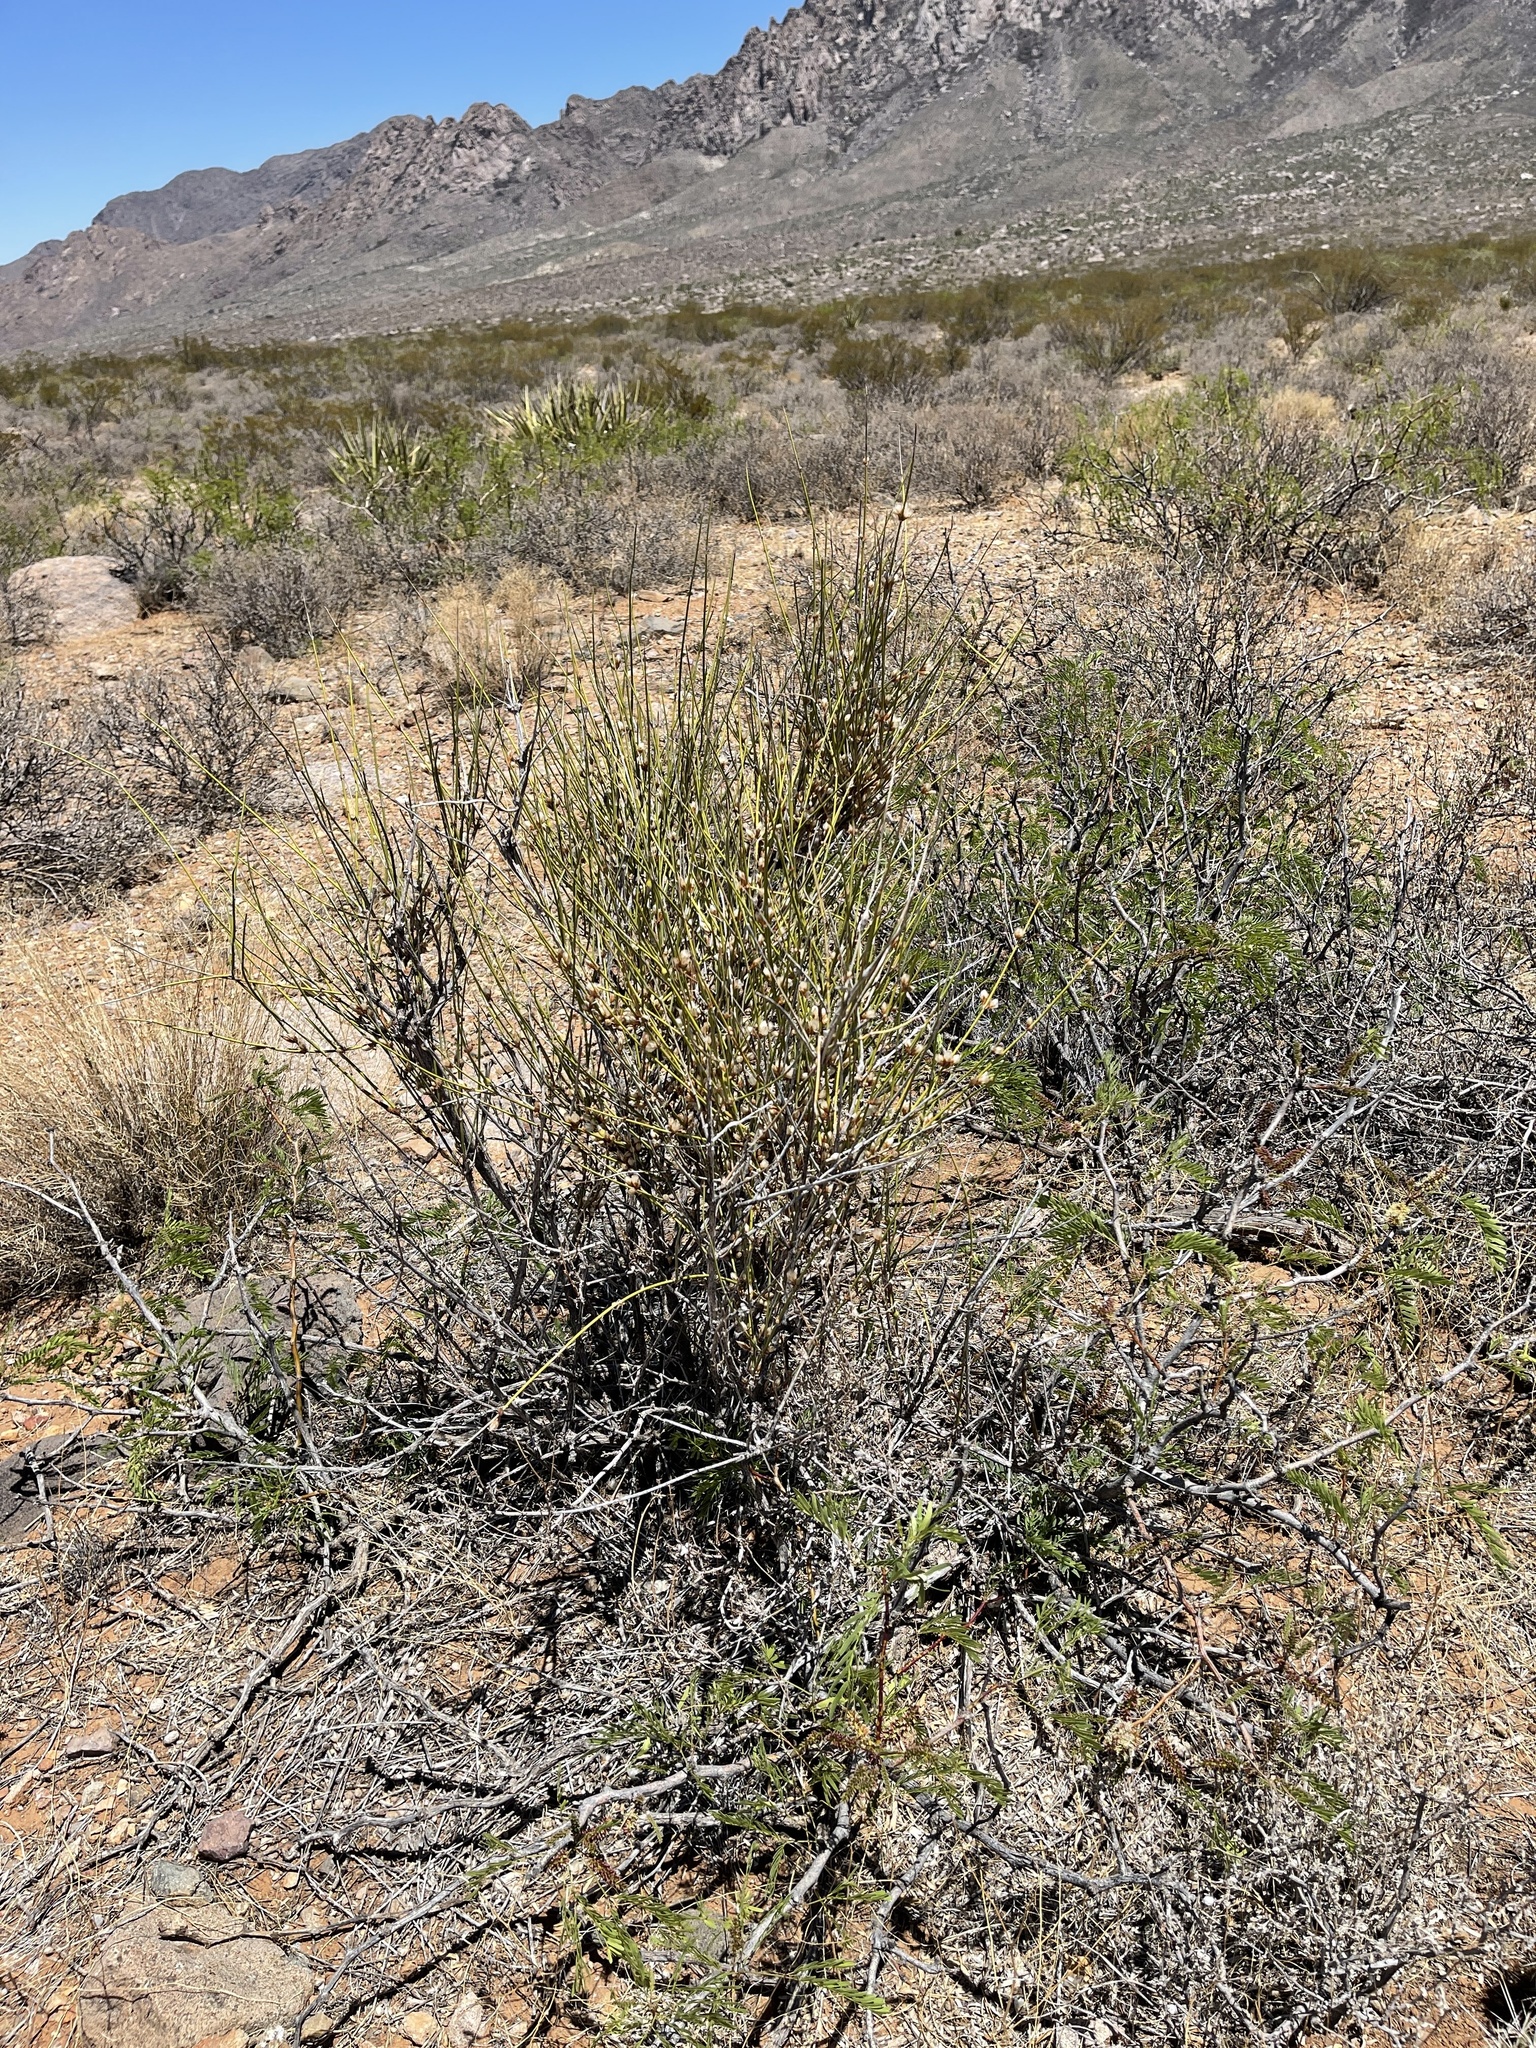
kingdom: Plantae
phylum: Tracheophyta
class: Gnetopsida
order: Ephedrales
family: Ephedraceae
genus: Ephedra
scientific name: Ephedra trifurca
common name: Mexican-tea
